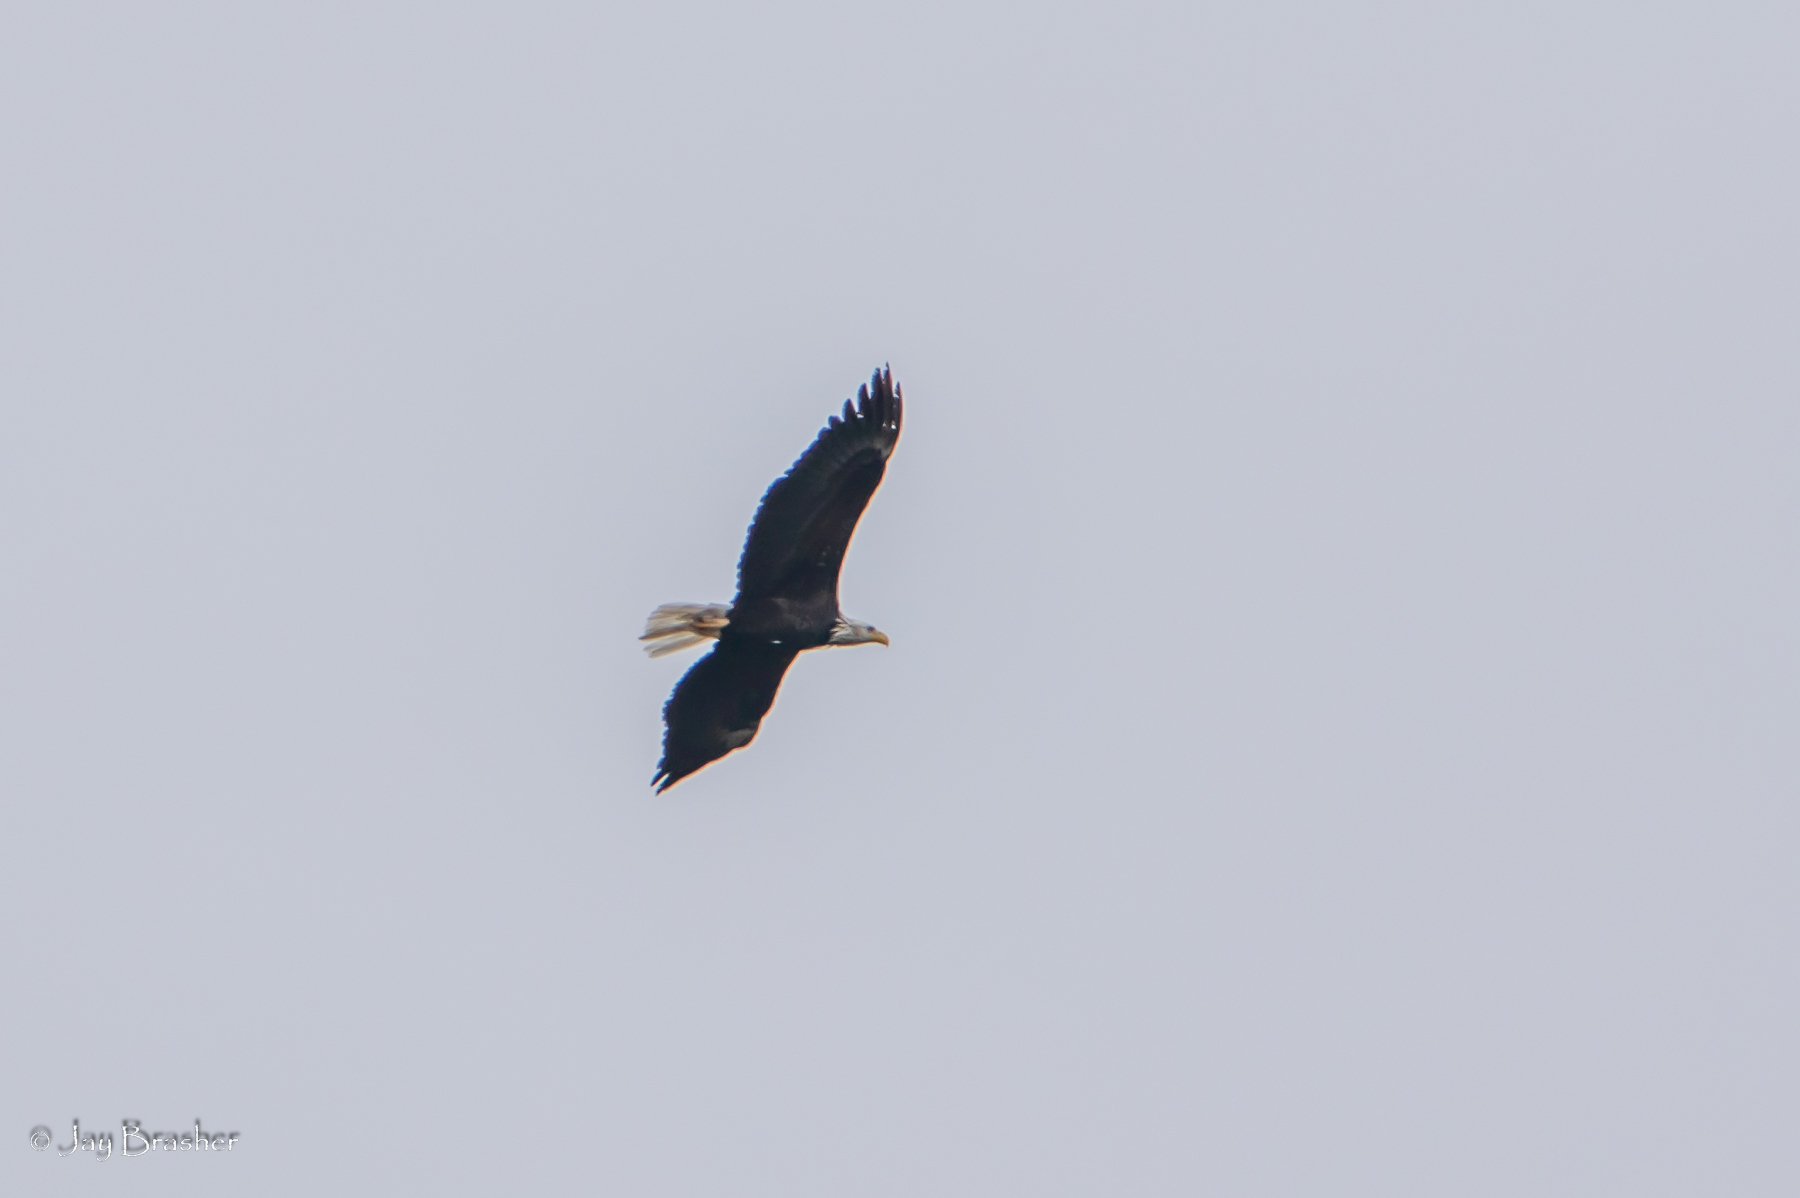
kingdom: Animalia
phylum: Chordata
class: Aves
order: Accipitriformes
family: Accipitridae
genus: Haliaeetus
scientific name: Haliaeetus leucocephalus
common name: Bald eagle
